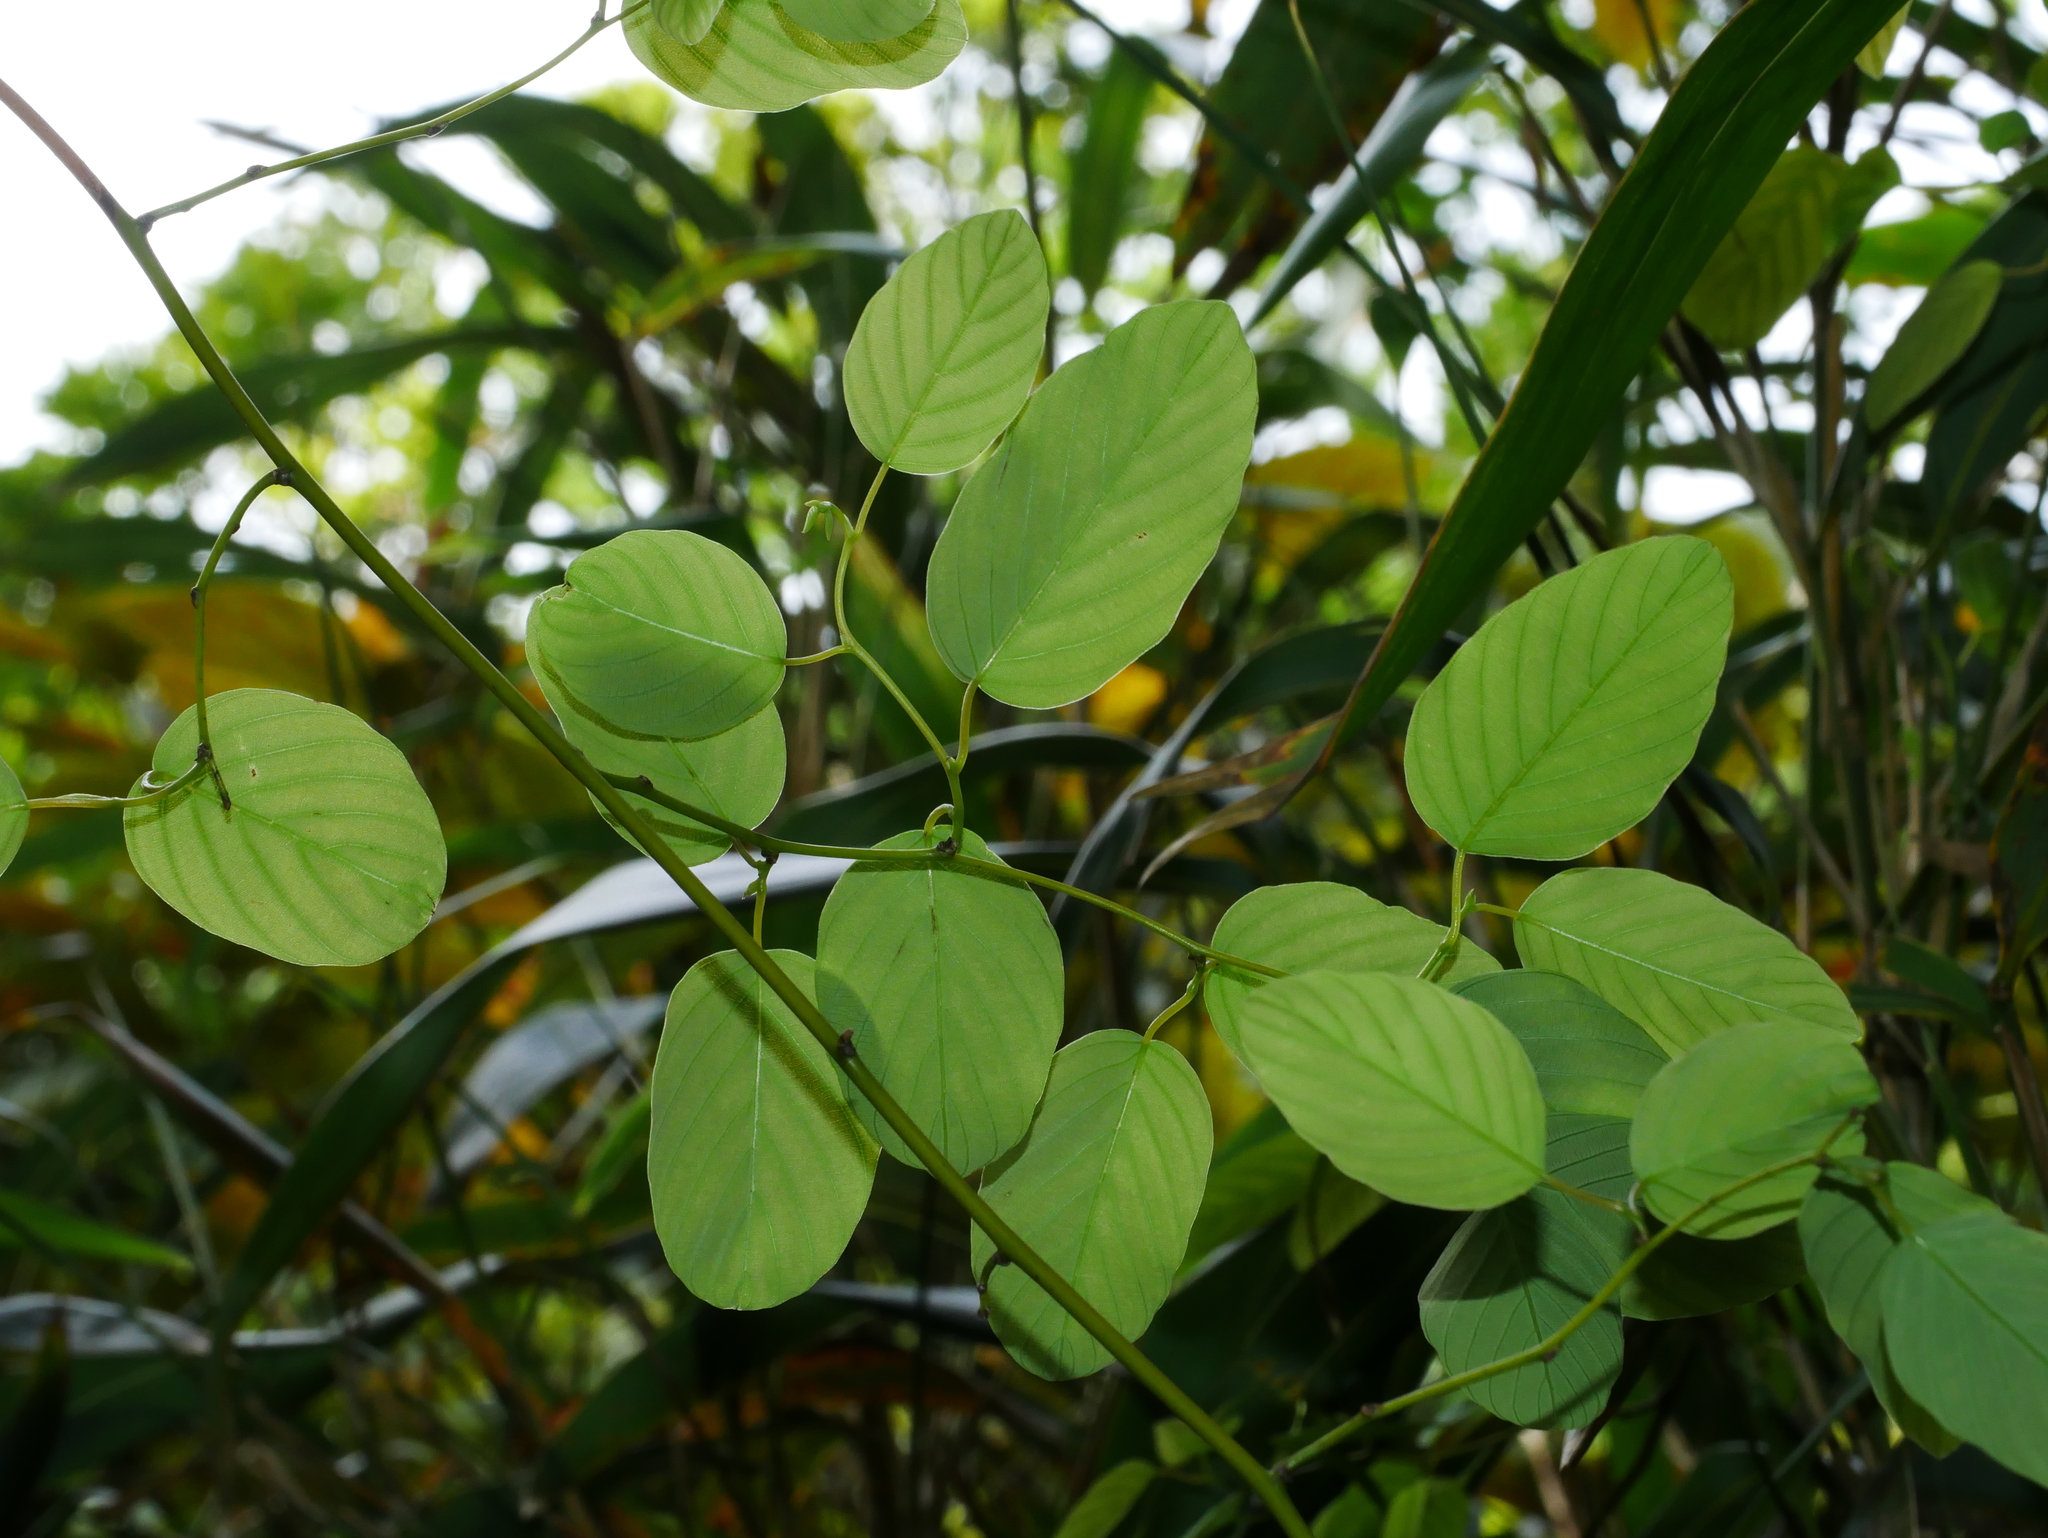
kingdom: Plantae
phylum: Tracheophyta
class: Magnoliopsida
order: Rosales
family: Rhamnaceae
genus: Berchemia
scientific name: Berchemia formosana
